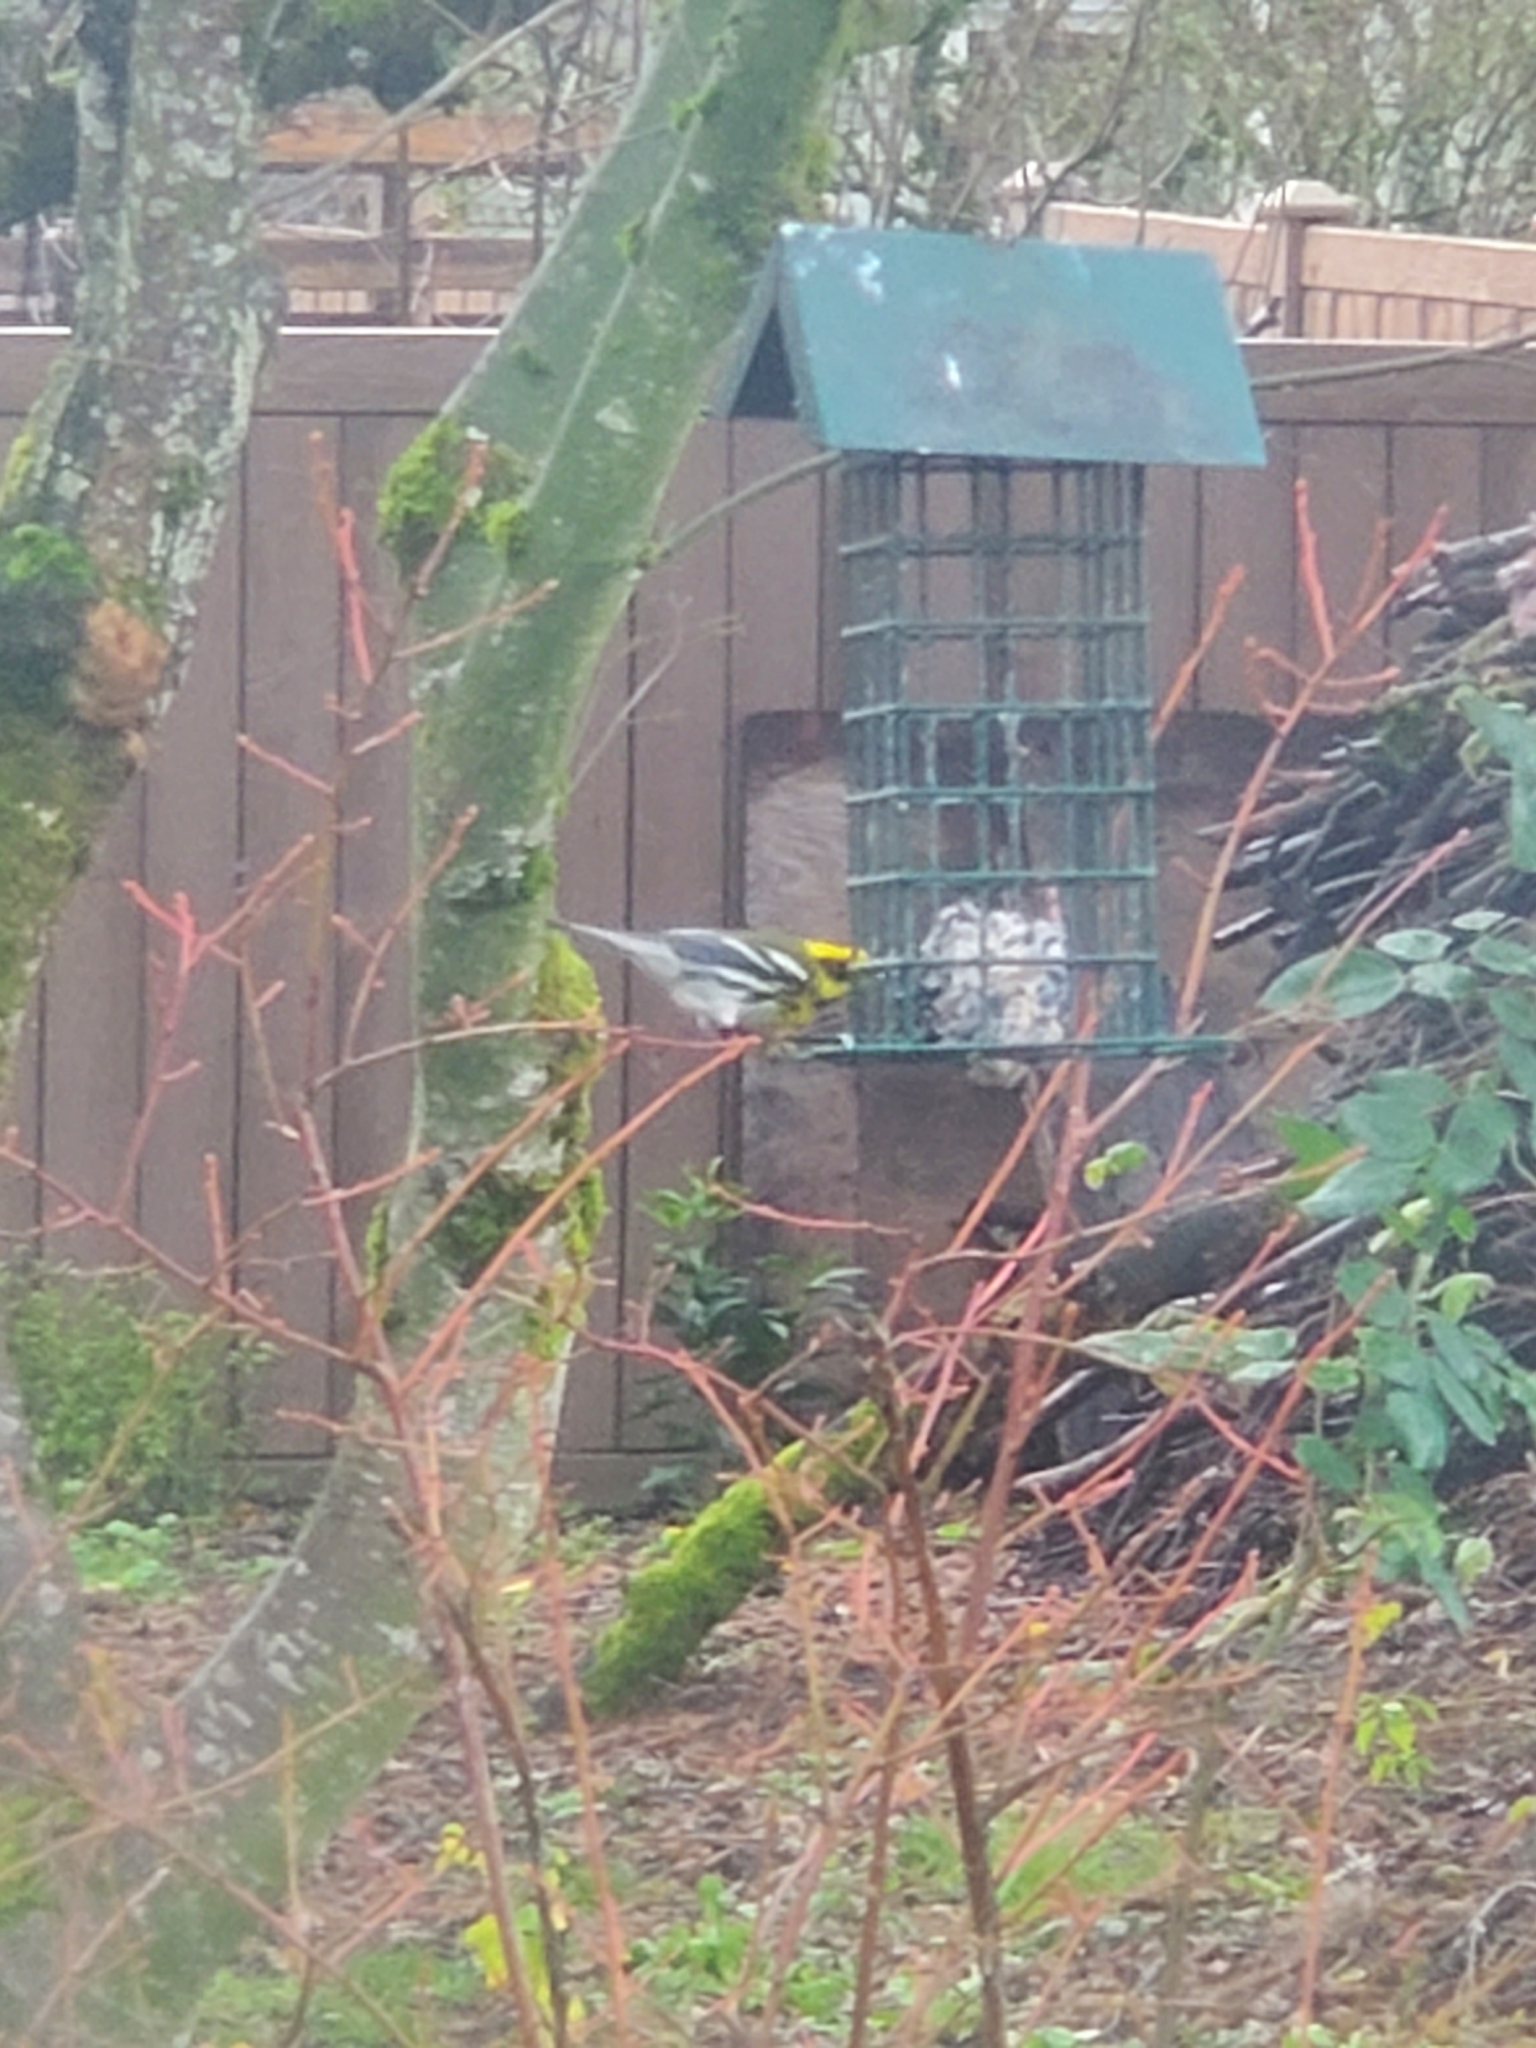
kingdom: Animalia
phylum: Chordata
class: Aves
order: Passeriformes
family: Parulidae
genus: Setophaga
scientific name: Setophaga townsendi
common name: Townsend's warbler
